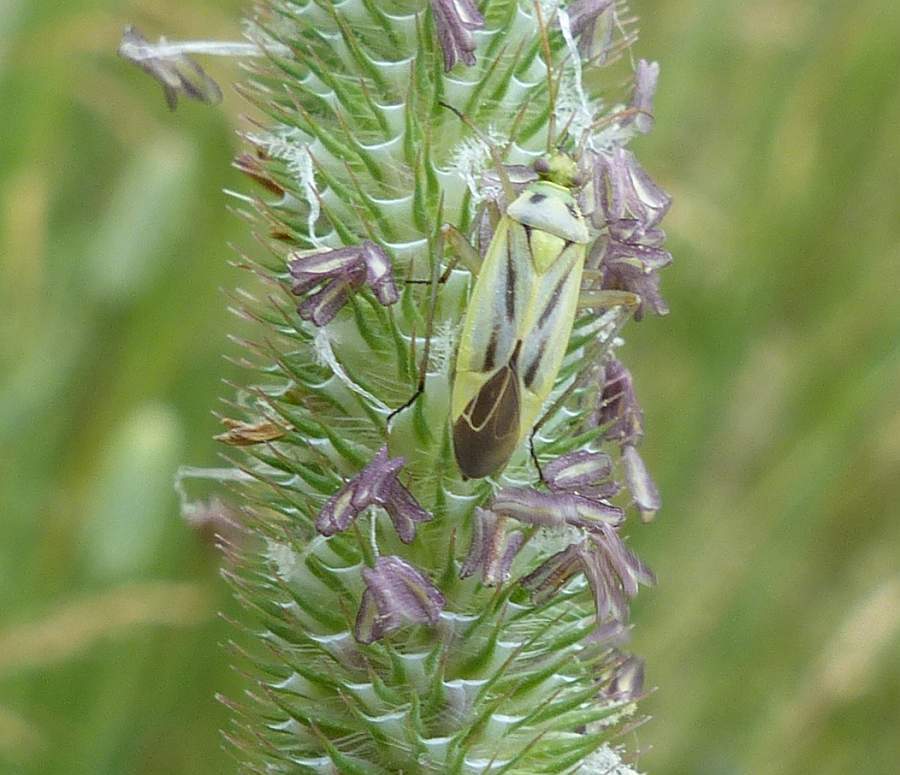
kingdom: Animalia
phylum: Arthropoda
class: Insecta
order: Hemiptera
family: Miridae
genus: Stenotus
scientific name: Stenotus binotatus
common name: Plant bug
